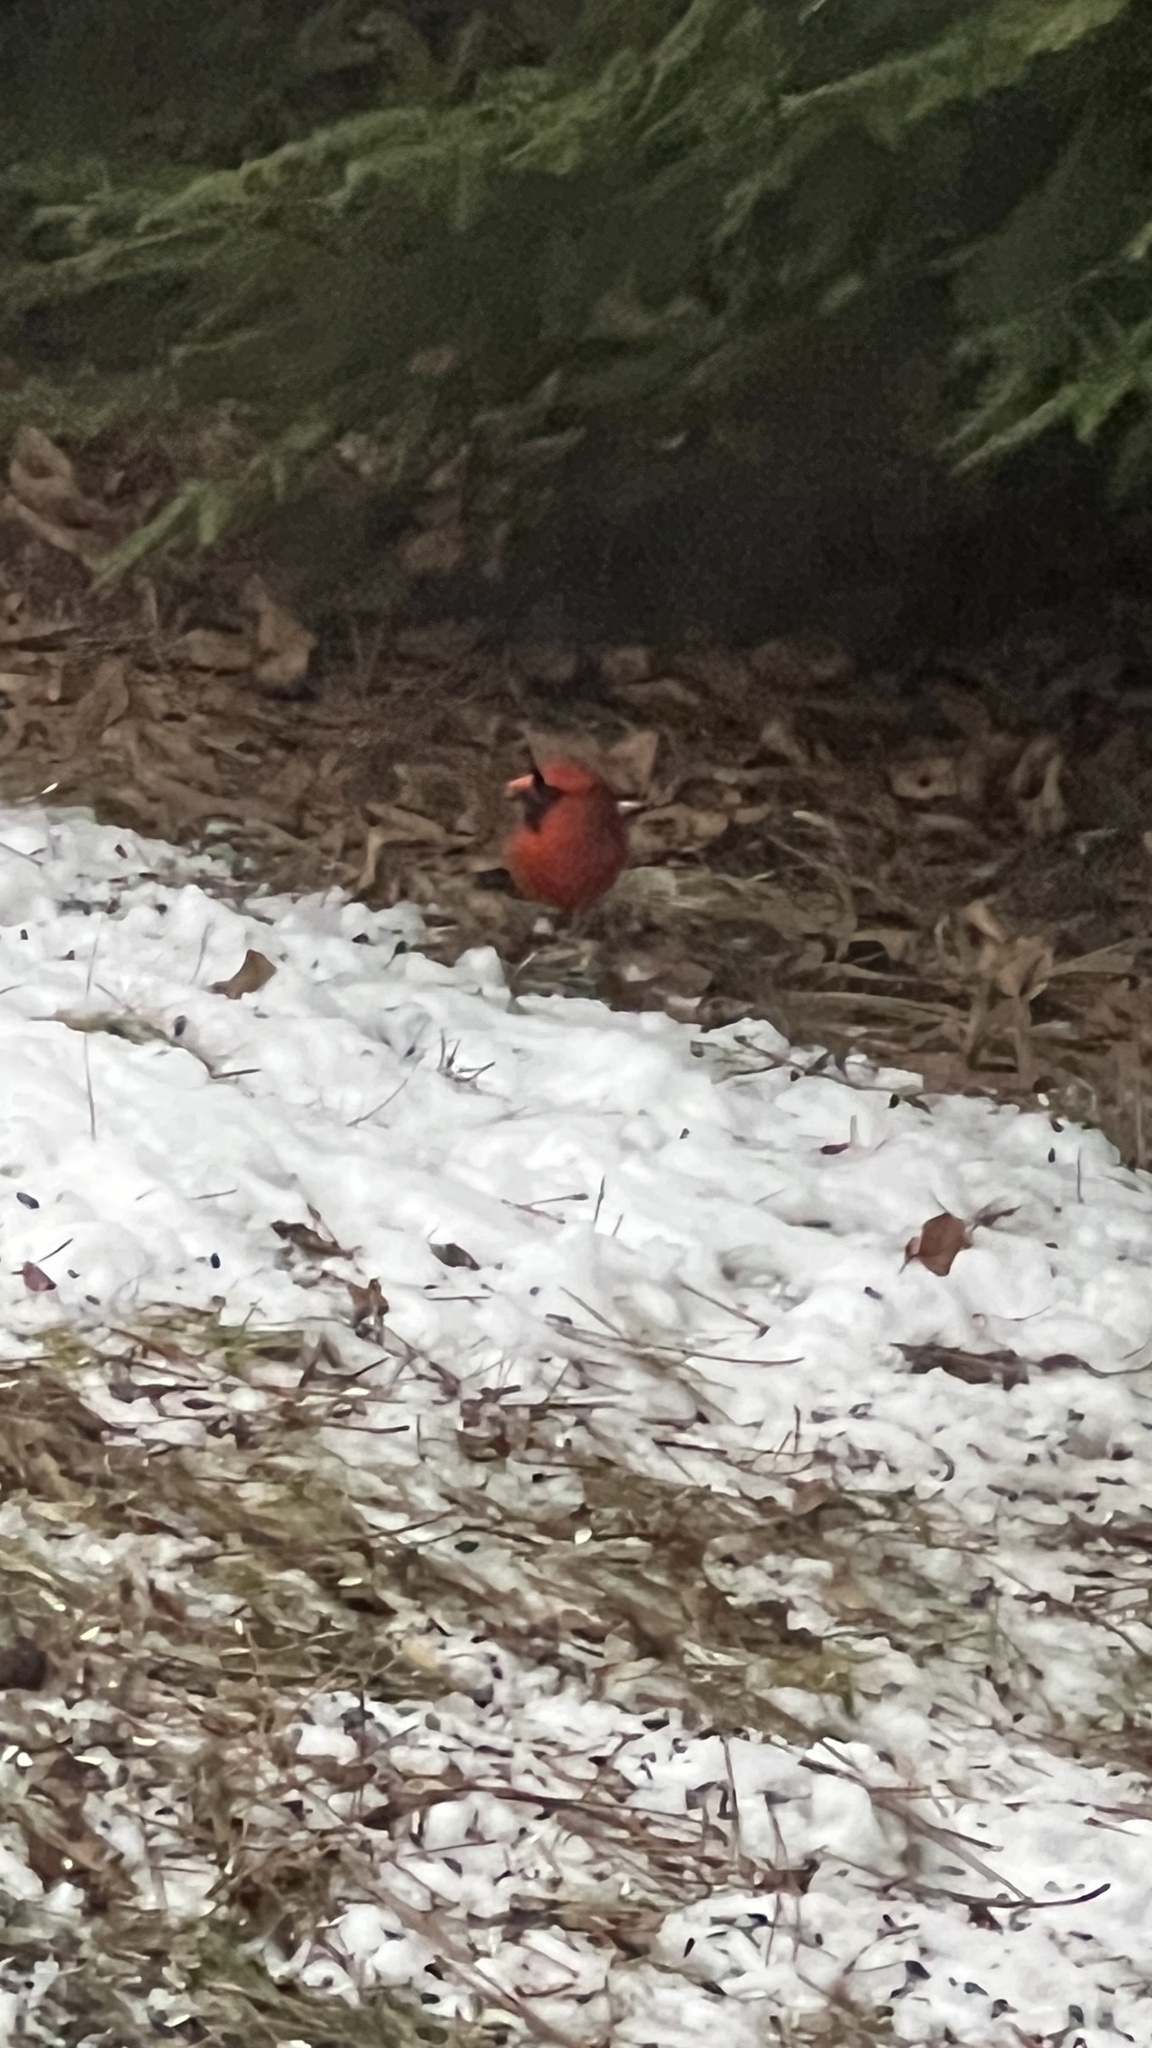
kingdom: Animalia
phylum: Chordata
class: Aves
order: Passeriformes
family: Cardinalidae
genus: Cardinalis
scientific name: Cardinalis cardinalis
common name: Northern cardinal
